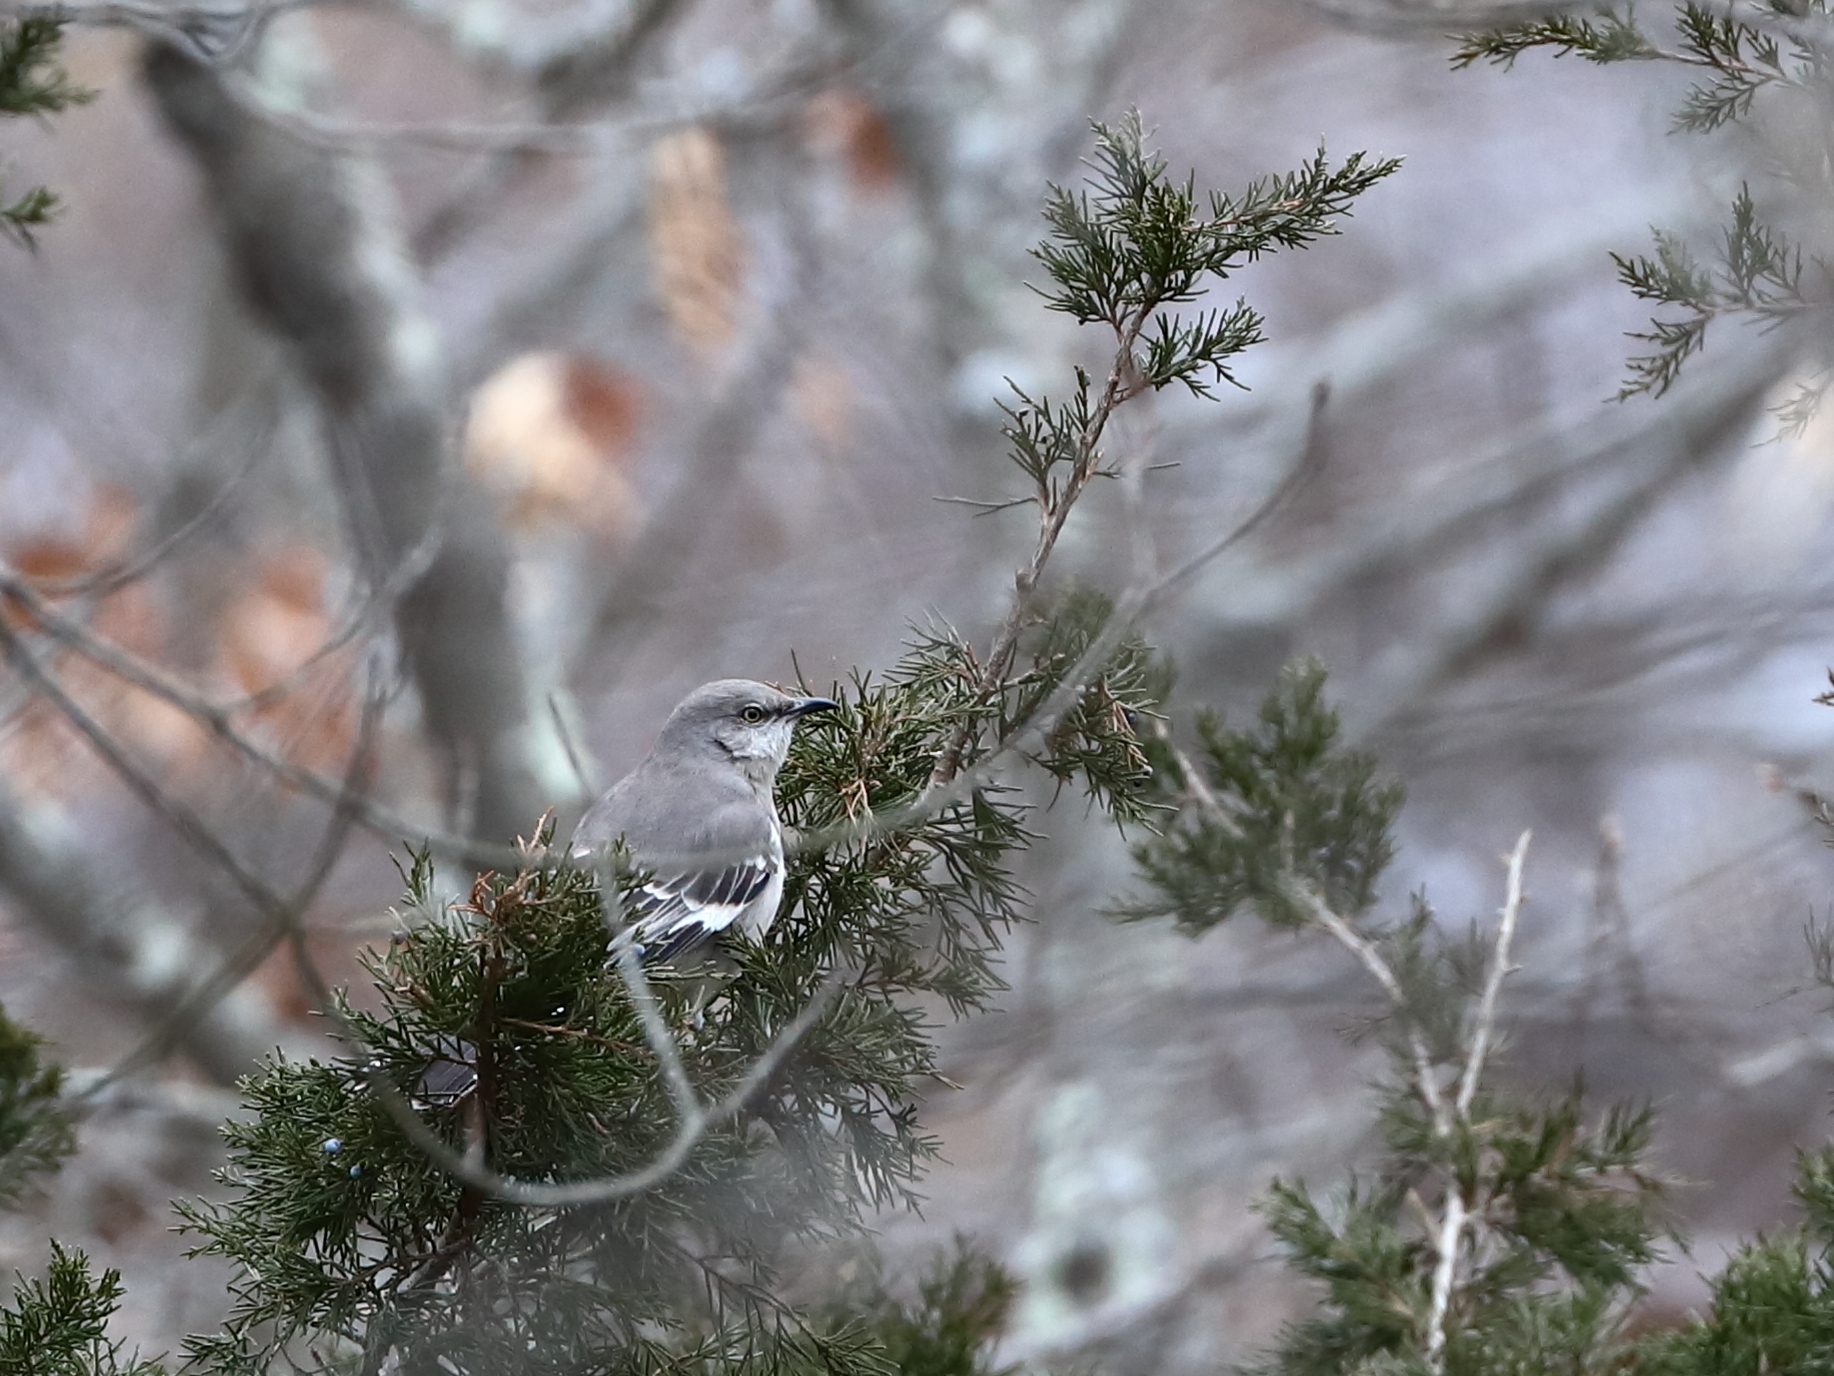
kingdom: Animalia
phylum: Chordata
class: Aves
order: Passeriformes
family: Mimidae
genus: Mimus
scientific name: Mimus polyglottos
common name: Northern mockingbird
